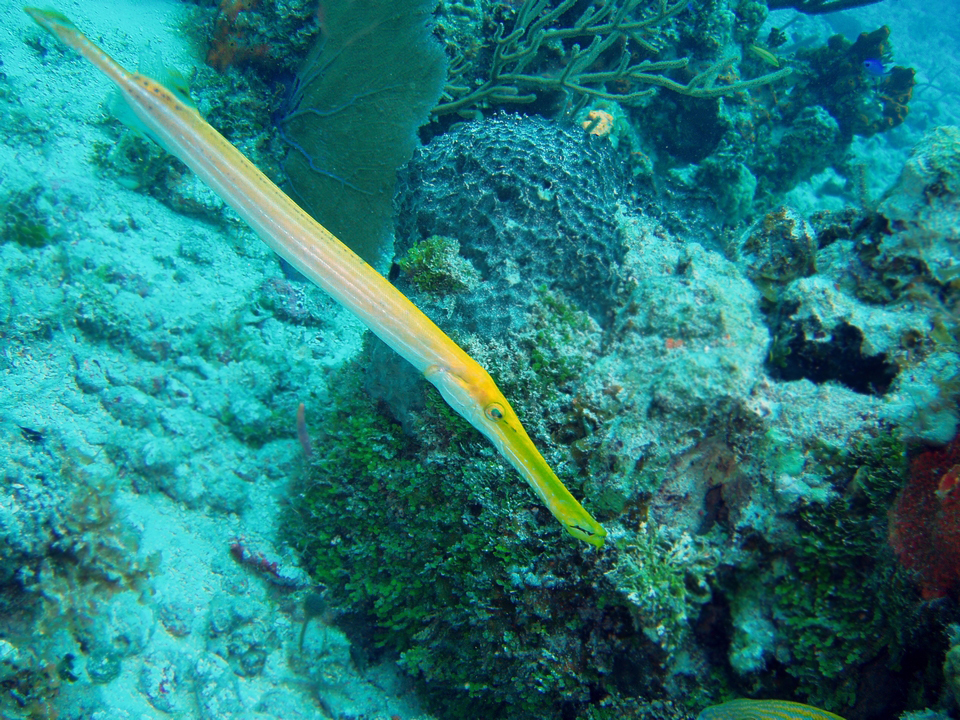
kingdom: Animalia
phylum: Chordata
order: Syngnathiformes
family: Aulostomidae
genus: Aulostomus
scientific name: Aulostomus maculatus
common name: West atlantic trumpetfish
